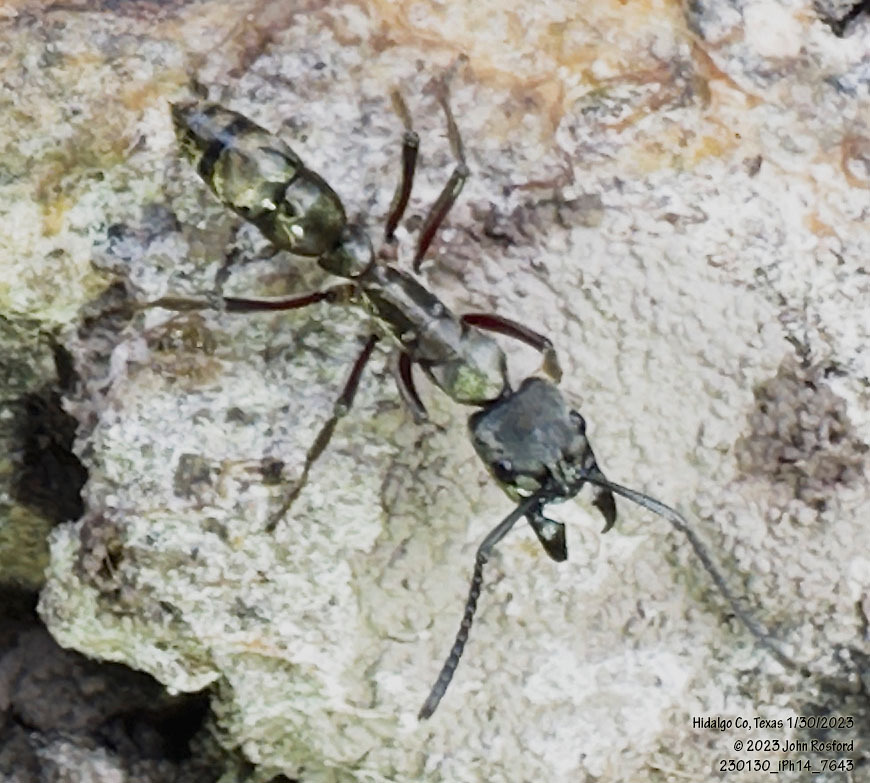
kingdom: Animalia
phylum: Arthropoda
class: Insecta
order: Hymenoptera
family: Formicidae
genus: Pachycondyla
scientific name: Pachycondyla villosa
